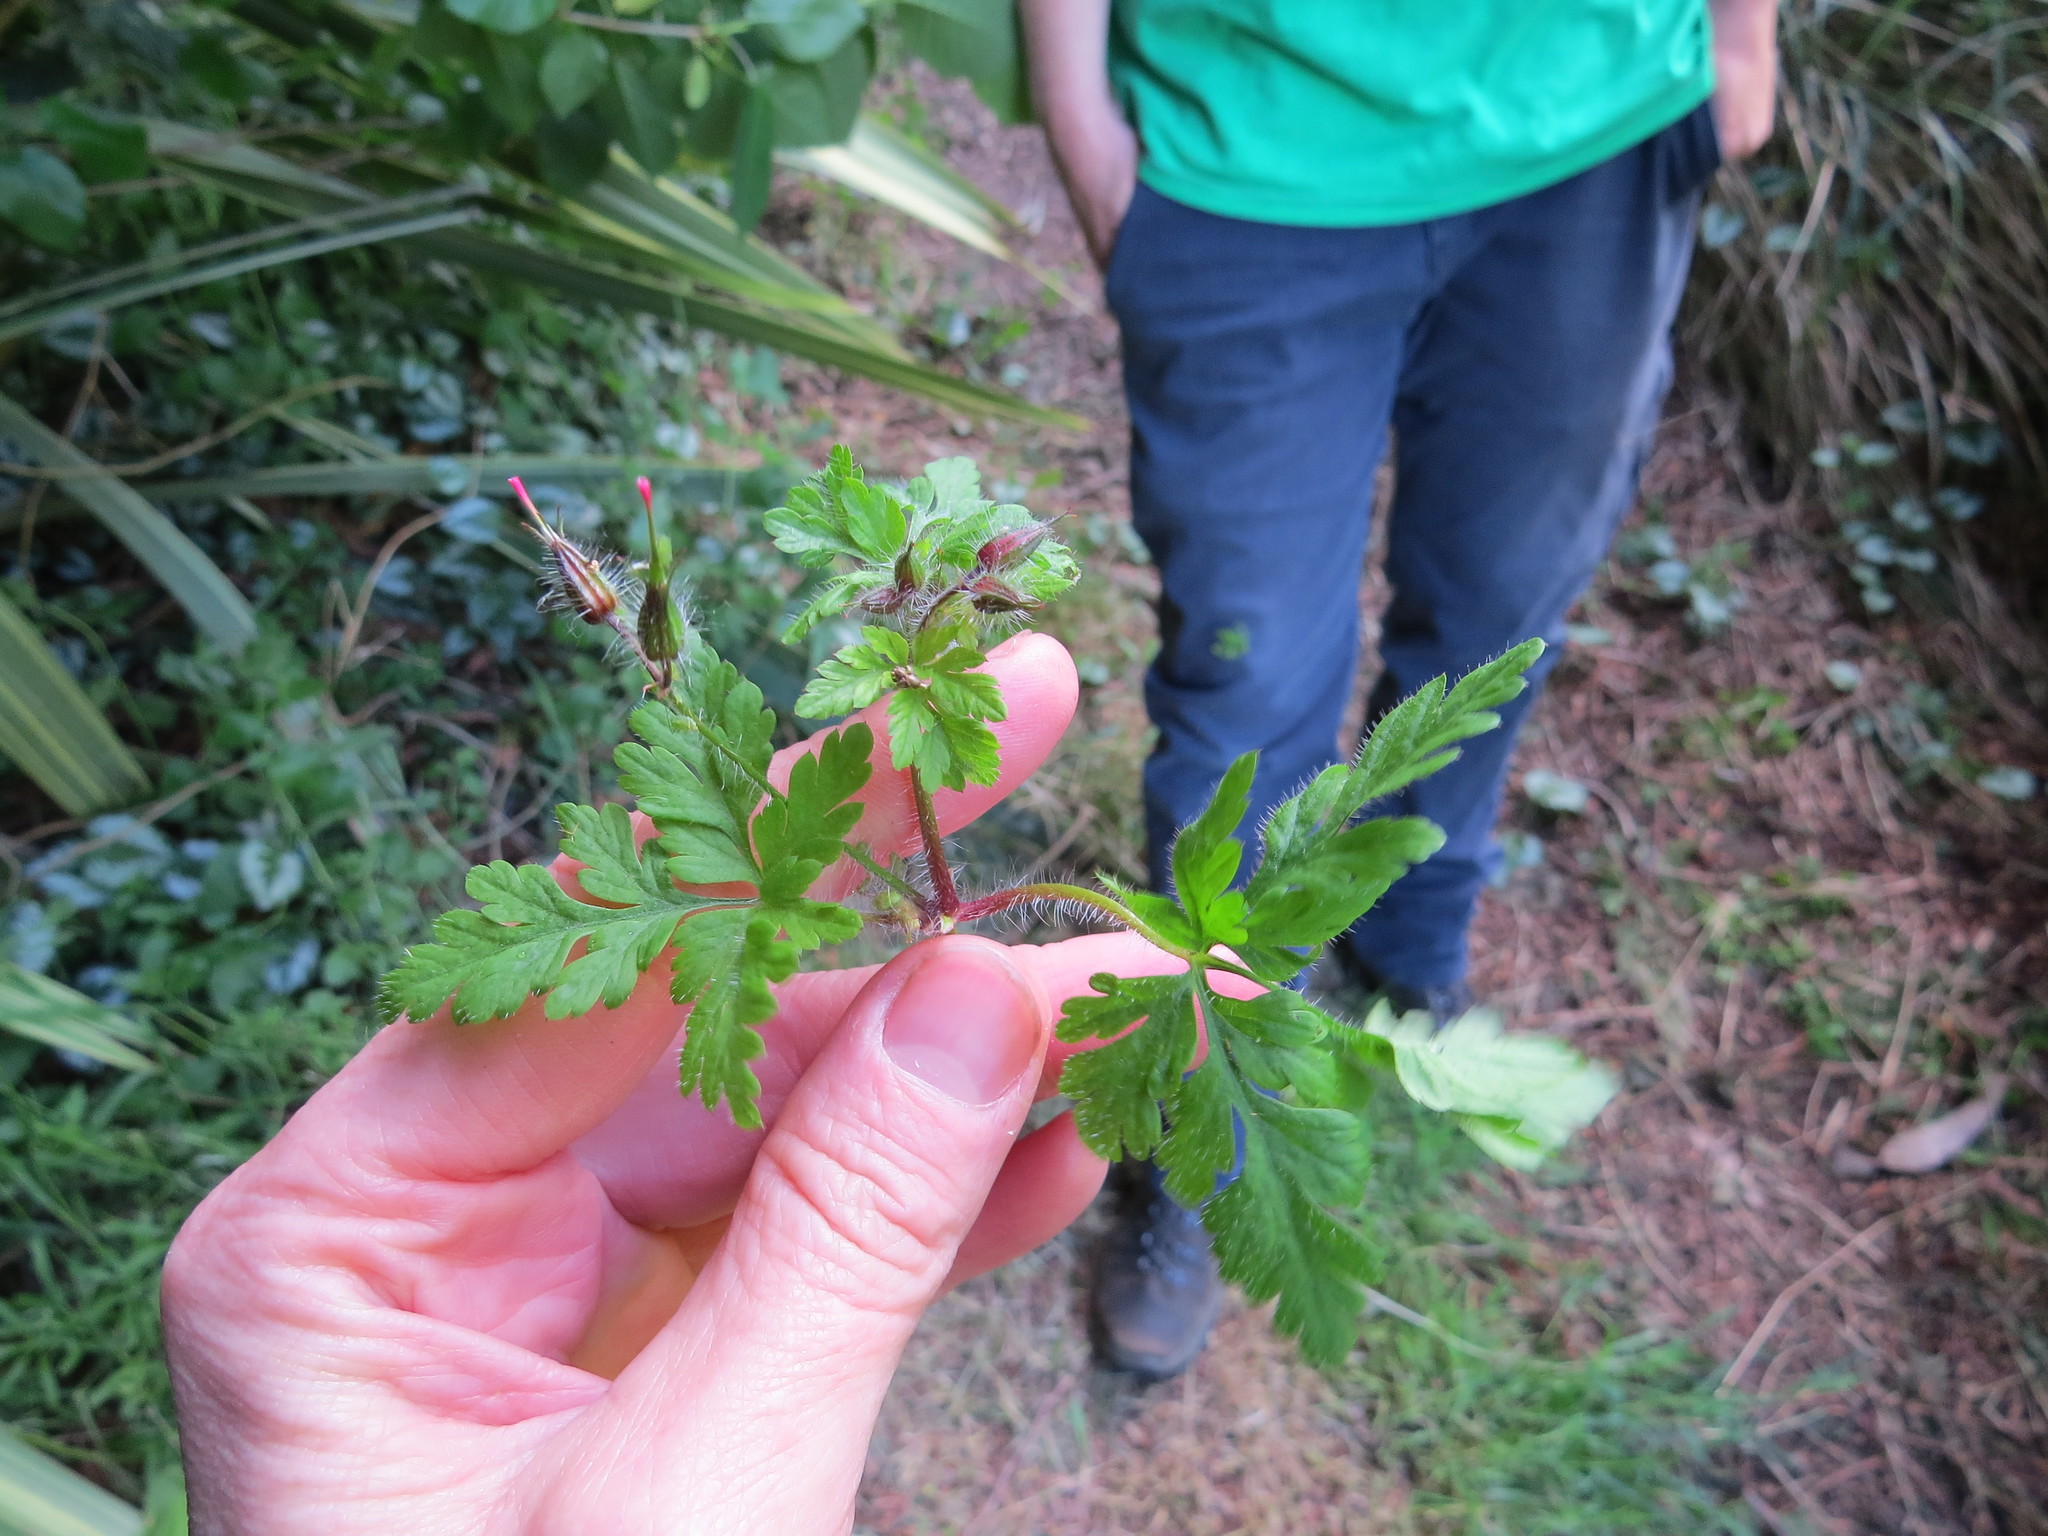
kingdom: Plantae
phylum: Tracheophyta
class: Magnoliopsida
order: Geraniales
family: Geraniaceae
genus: Geranium
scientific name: Geranium robertianum
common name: Herb-robert
